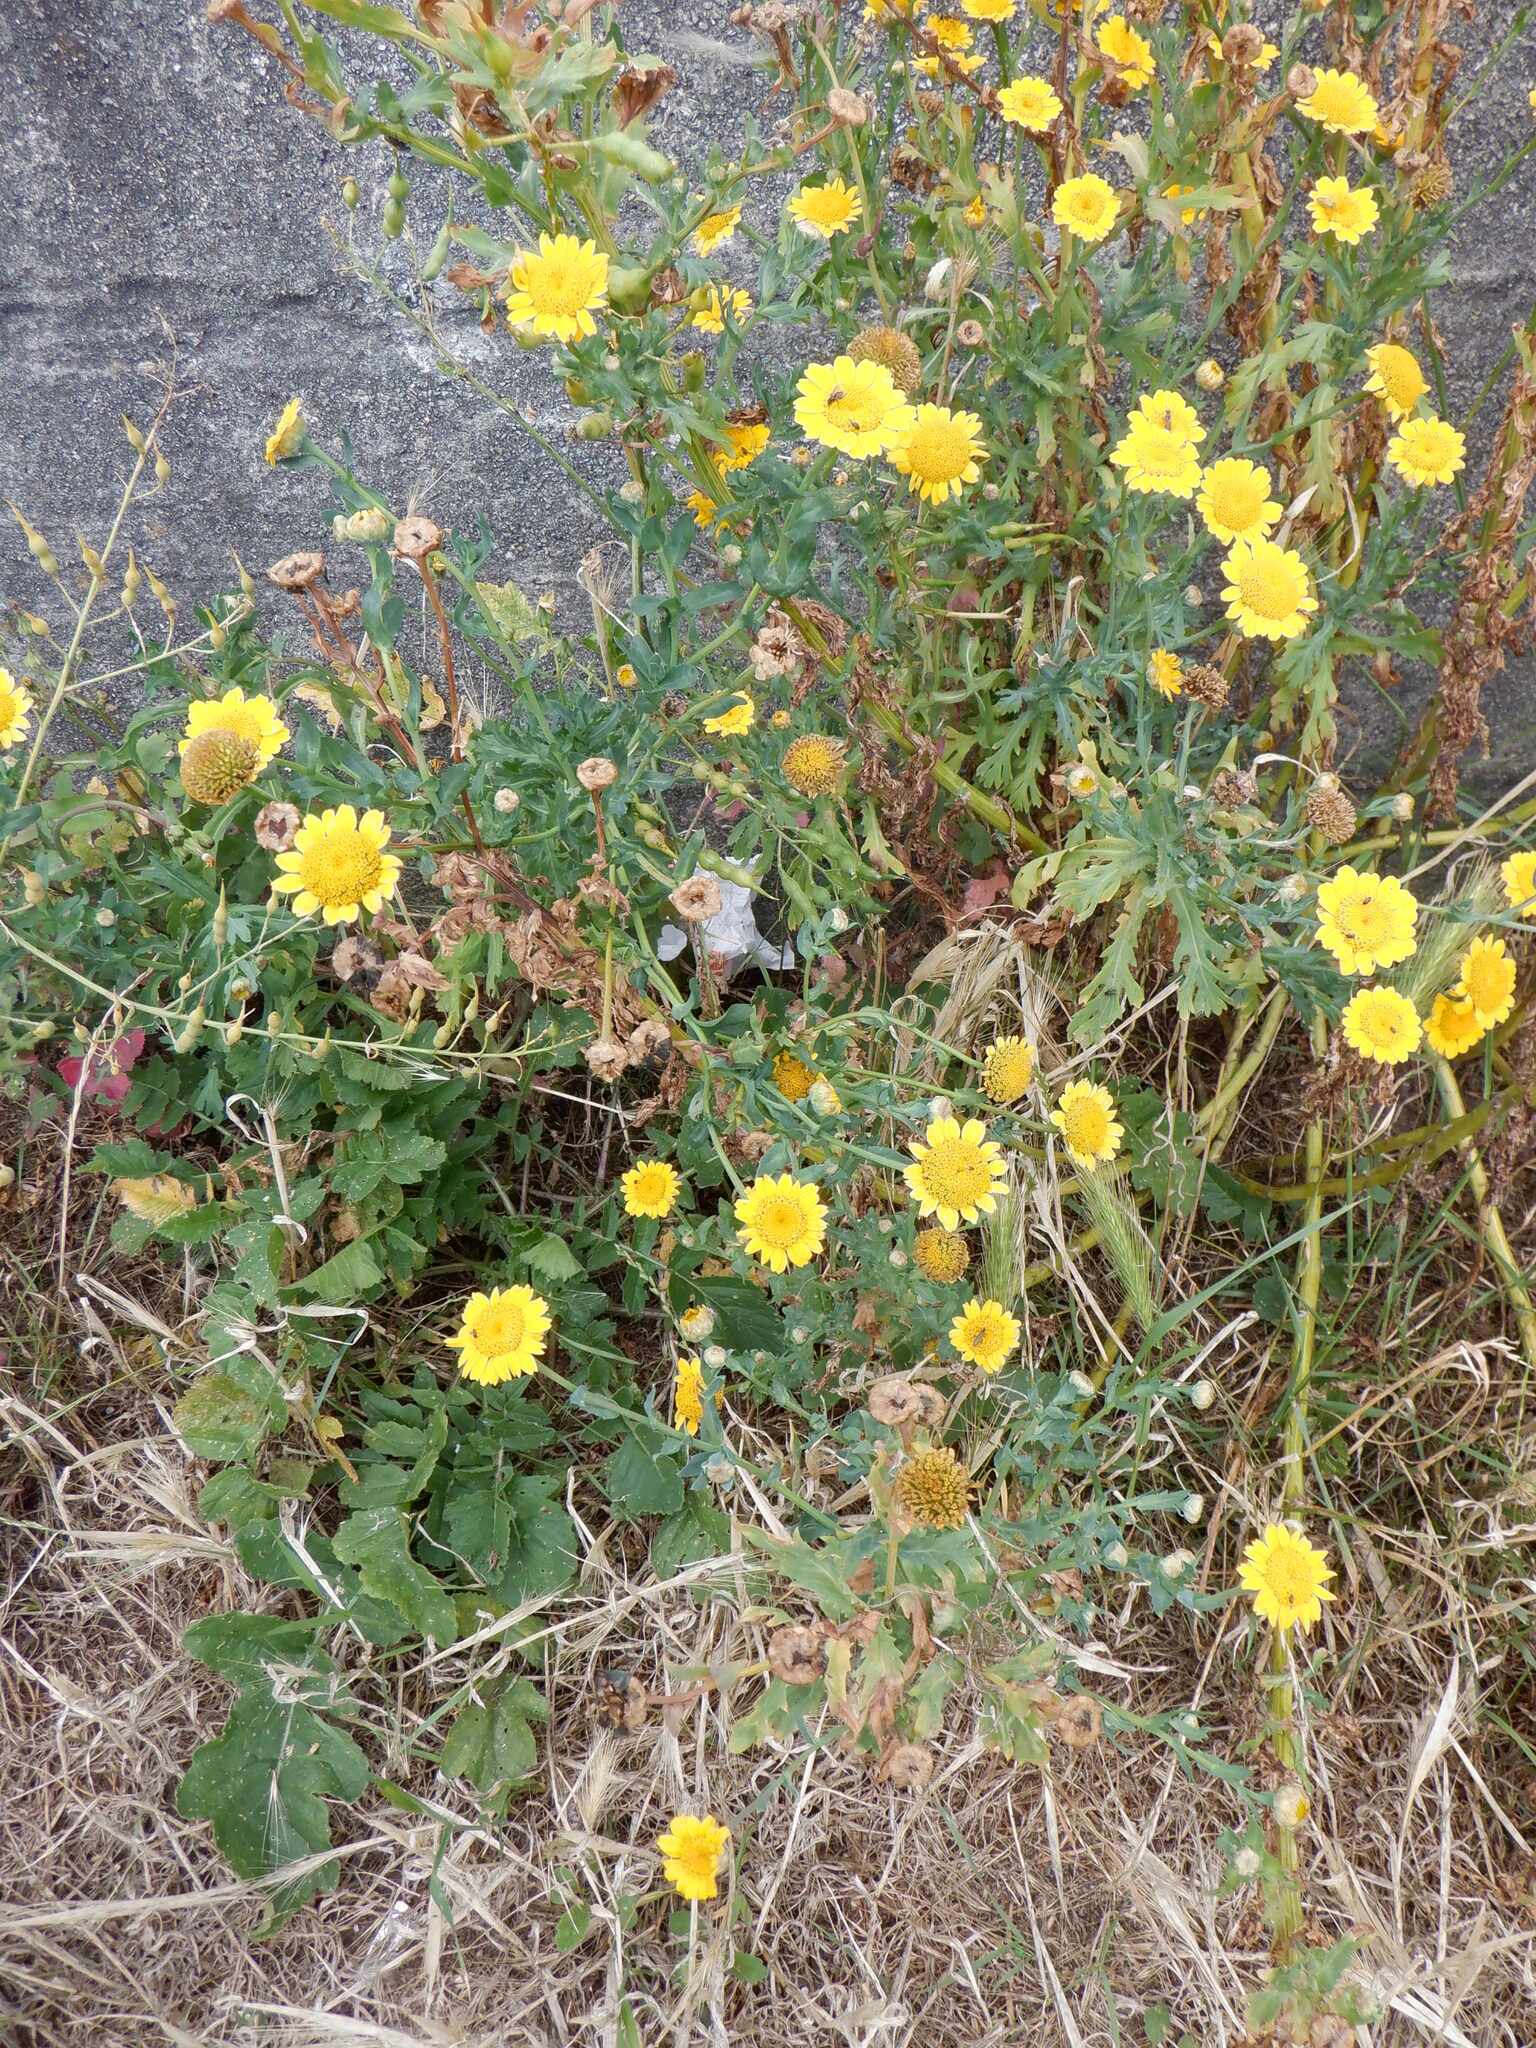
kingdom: Plantae
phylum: Tracheophyta
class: Magnoliopsida
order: Asterales
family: Asteraceae
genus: Glebionis
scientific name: Glebionis segetum
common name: Corndaisy
